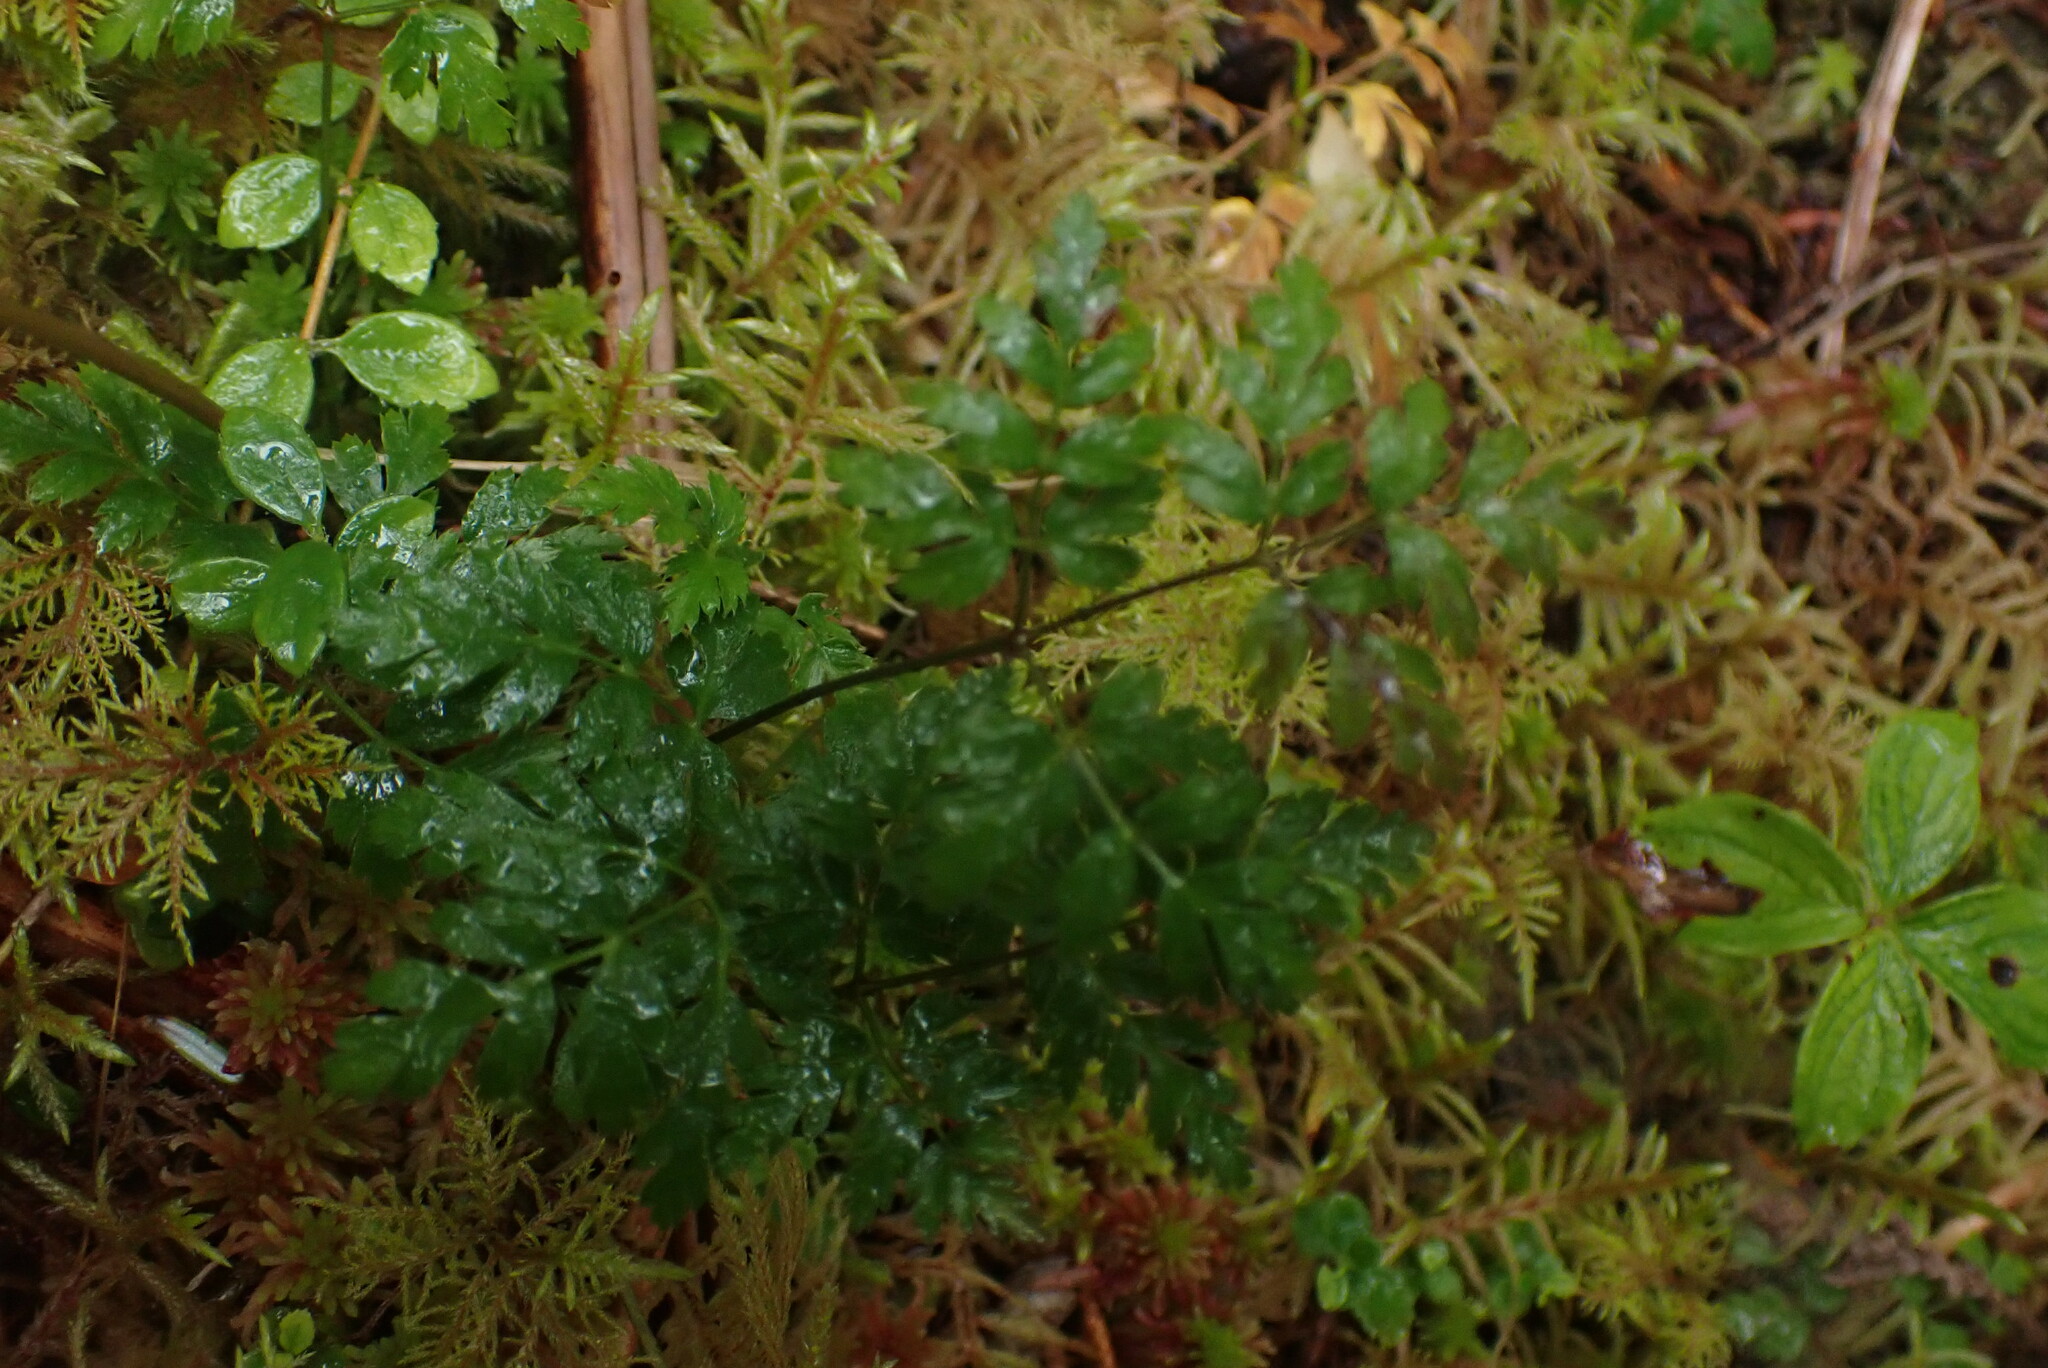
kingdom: Plantae
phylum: Tracheophyta
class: Magnoliopsida
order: Ranunculales
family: Ranunculaceae
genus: Coptis
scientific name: Coptis aspleniifolia
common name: Fern-leaved goldthread
